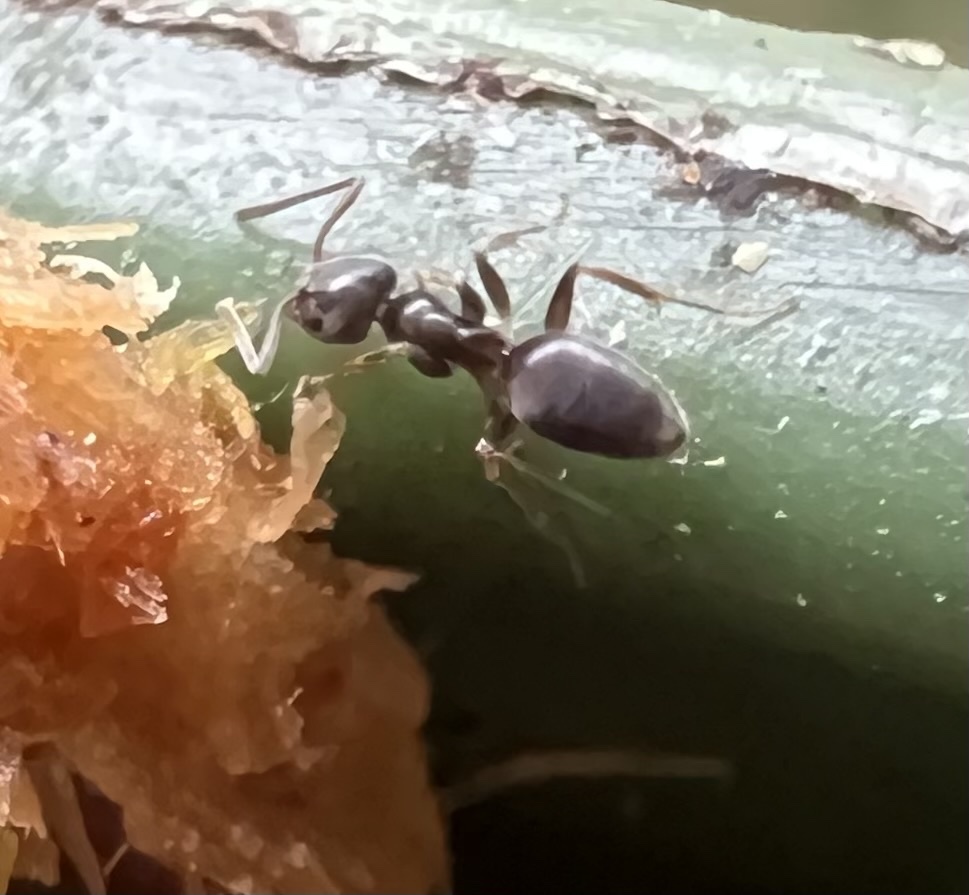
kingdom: Animalia
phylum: Arthropoda
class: Insecta
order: Hymenoptera
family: Formicidae
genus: Tapinoma
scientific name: Tapinoma sessile
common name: Odorous house ant
